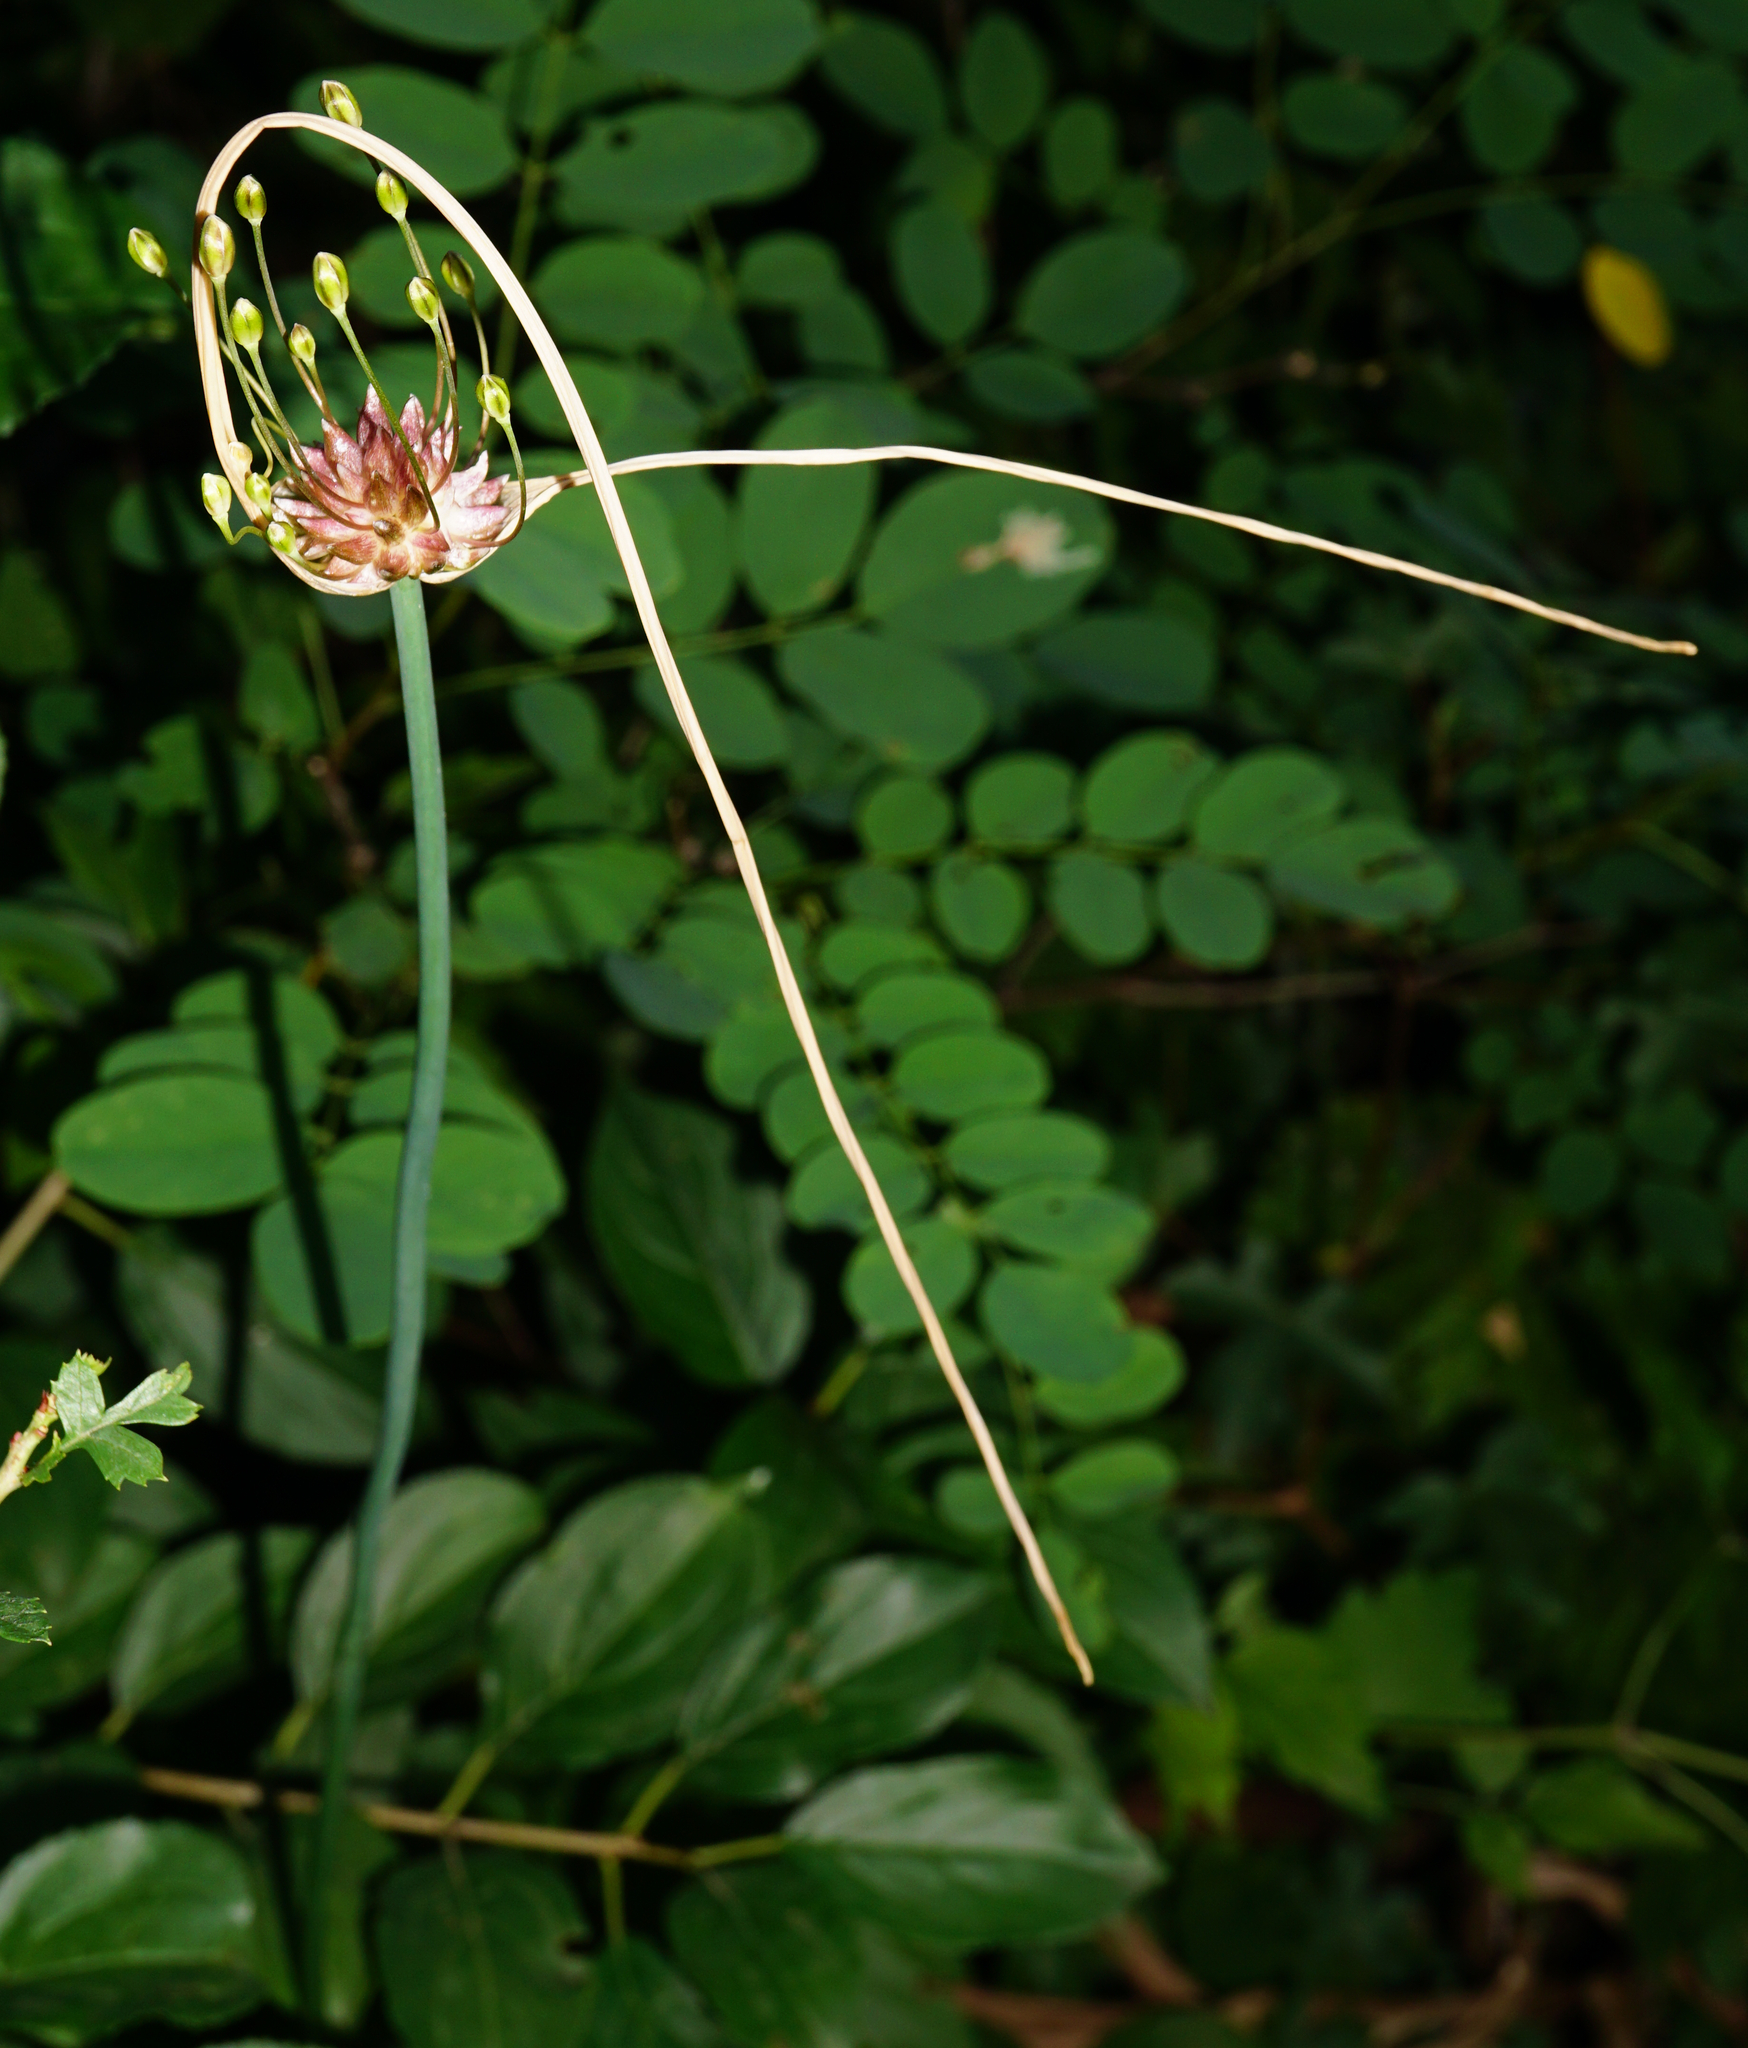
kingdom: Plantae
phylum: Tracheophyta
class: Liliopsida
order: Asparagales
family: Amaryllidaceae
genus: Allium
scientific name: Allium oleraceum
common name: Field garlic
